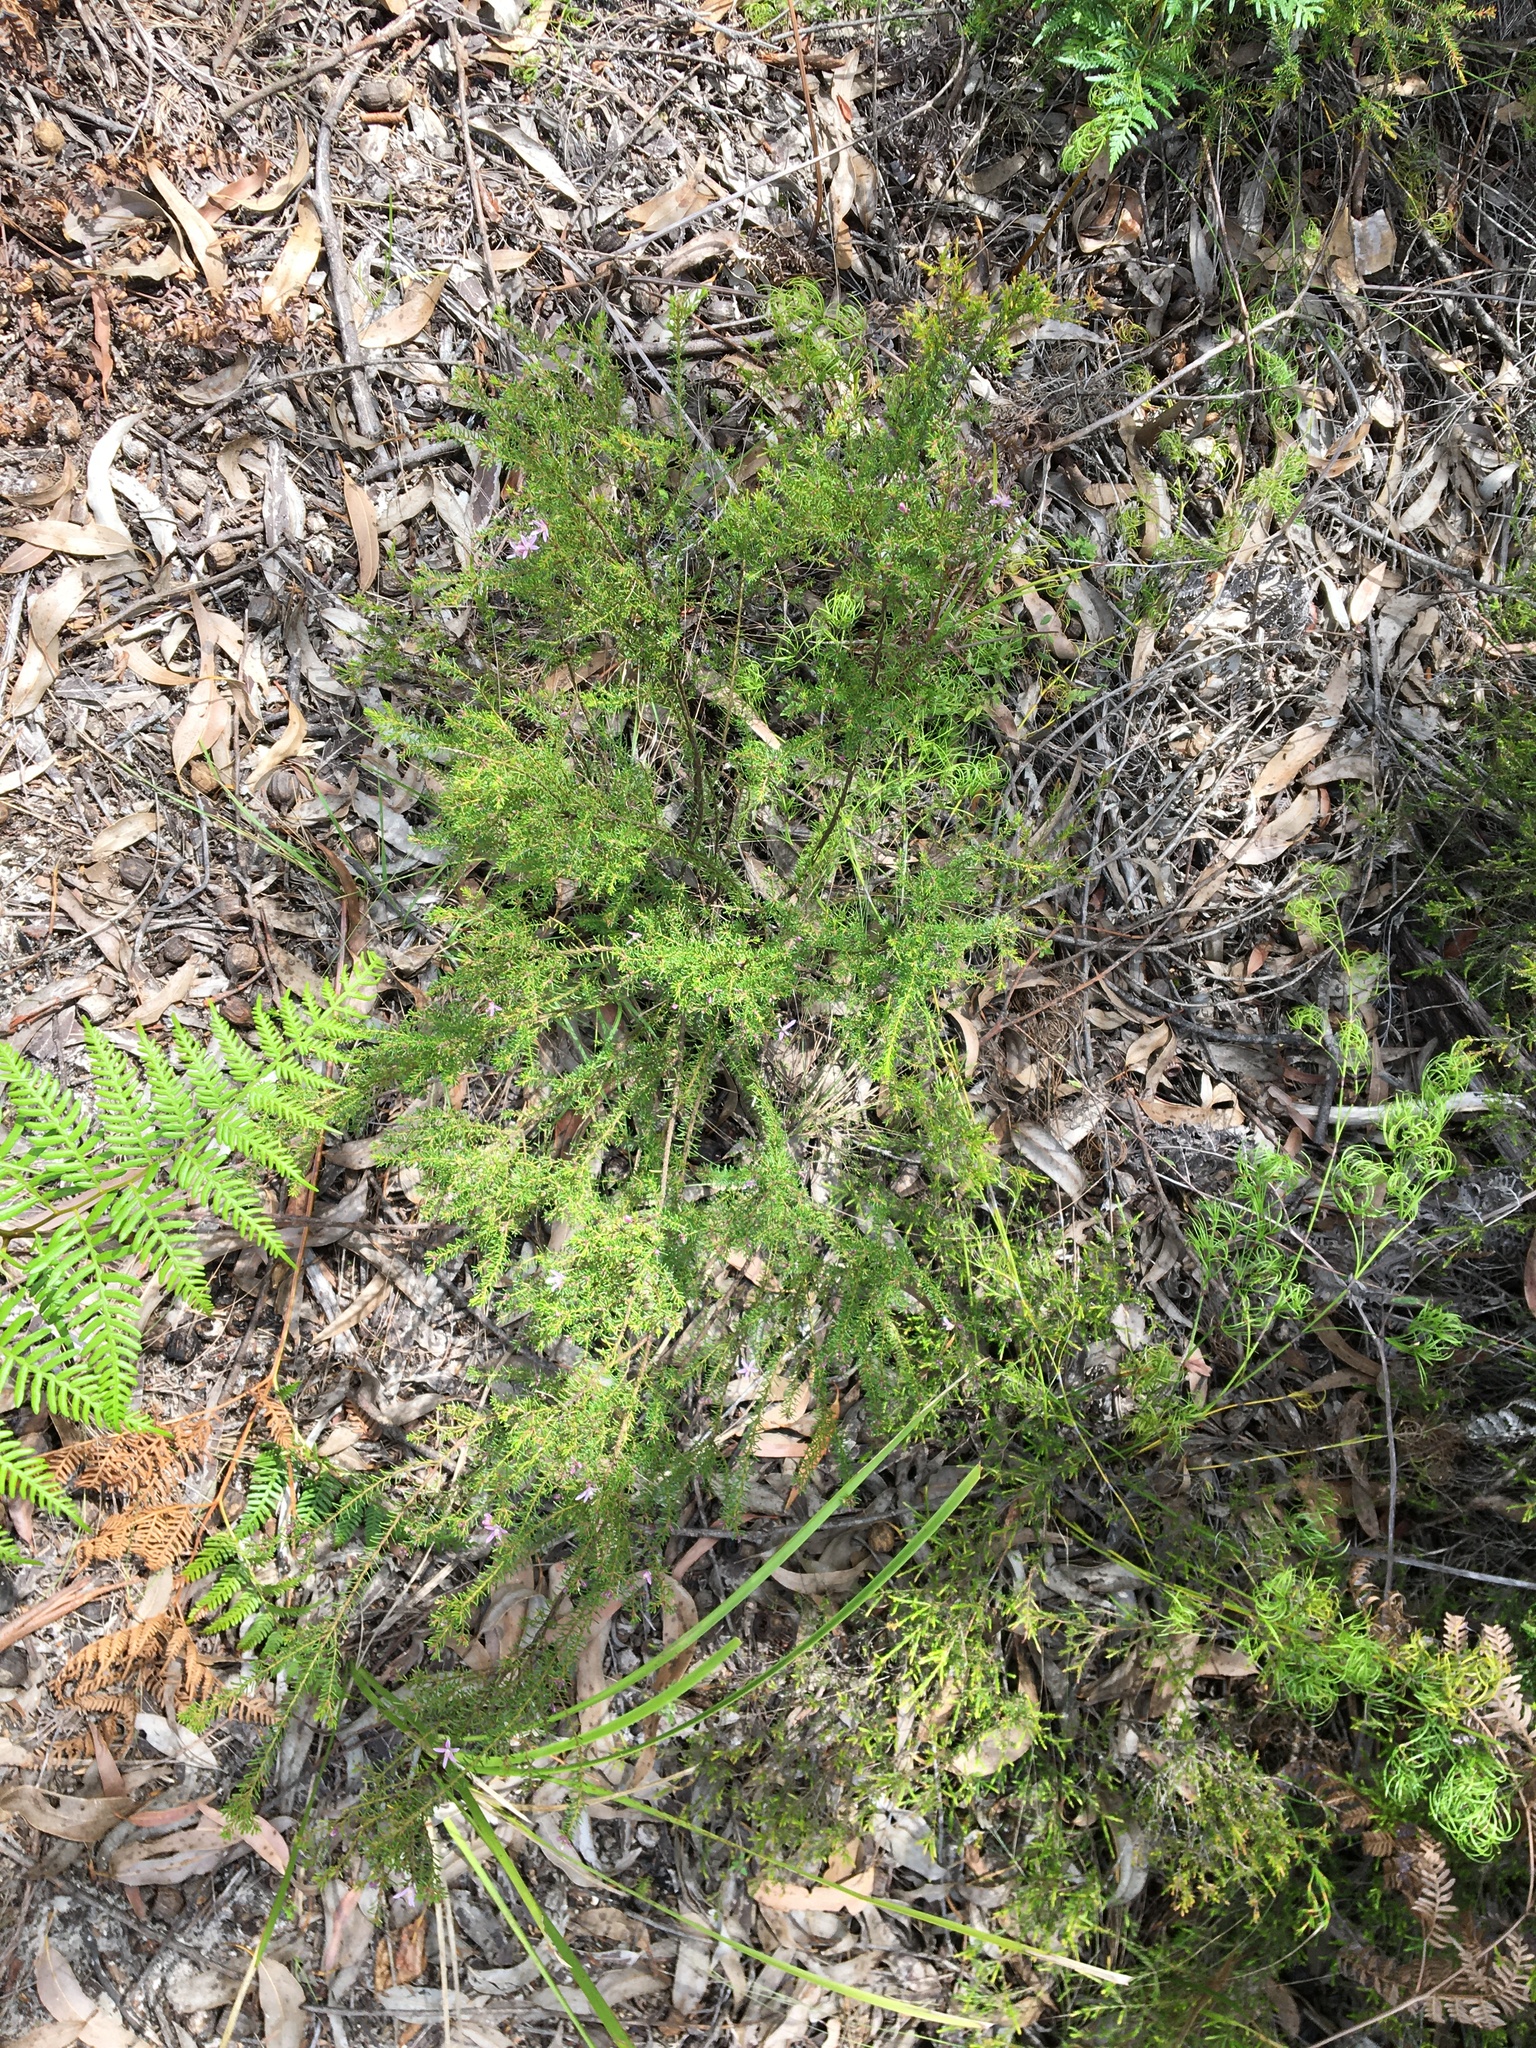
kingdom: Plantae
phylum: Tracheophyta
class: Magnoliopsida
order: Sapindales
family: Rutaceae
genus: Philotheca
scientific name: Philotheca salsolifolia
